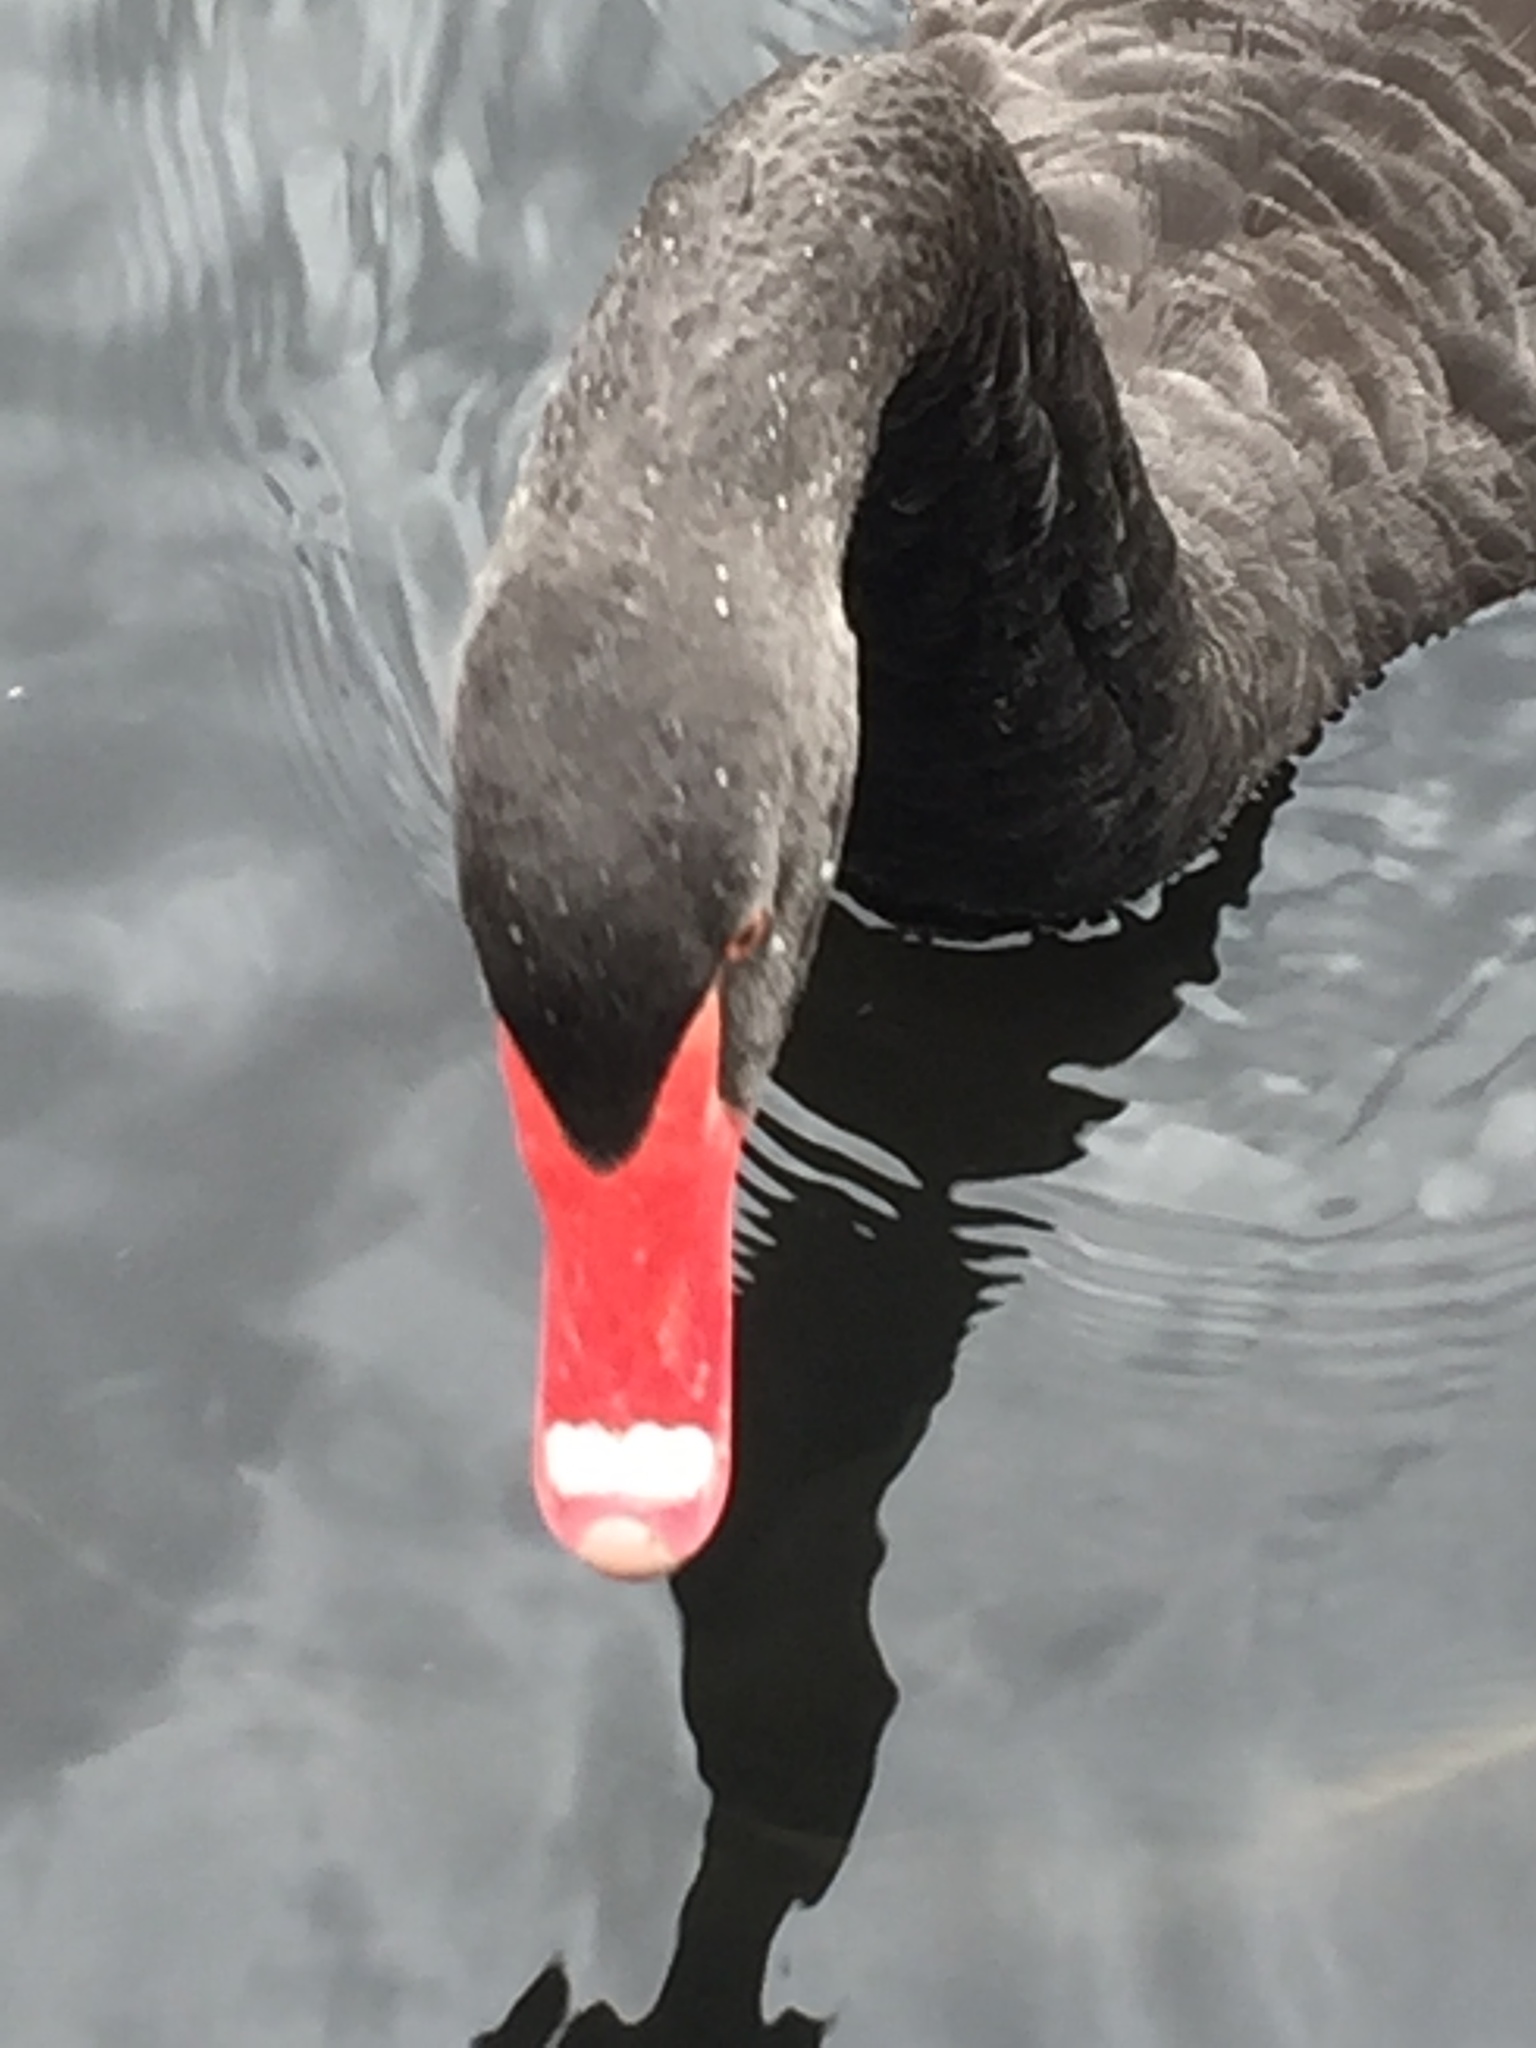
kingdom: Animalia
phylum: Chordata
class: Aves
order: Anseriformes
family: Anatidae
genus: Cygnus
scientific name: Cygnus atratus
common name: Black swan
